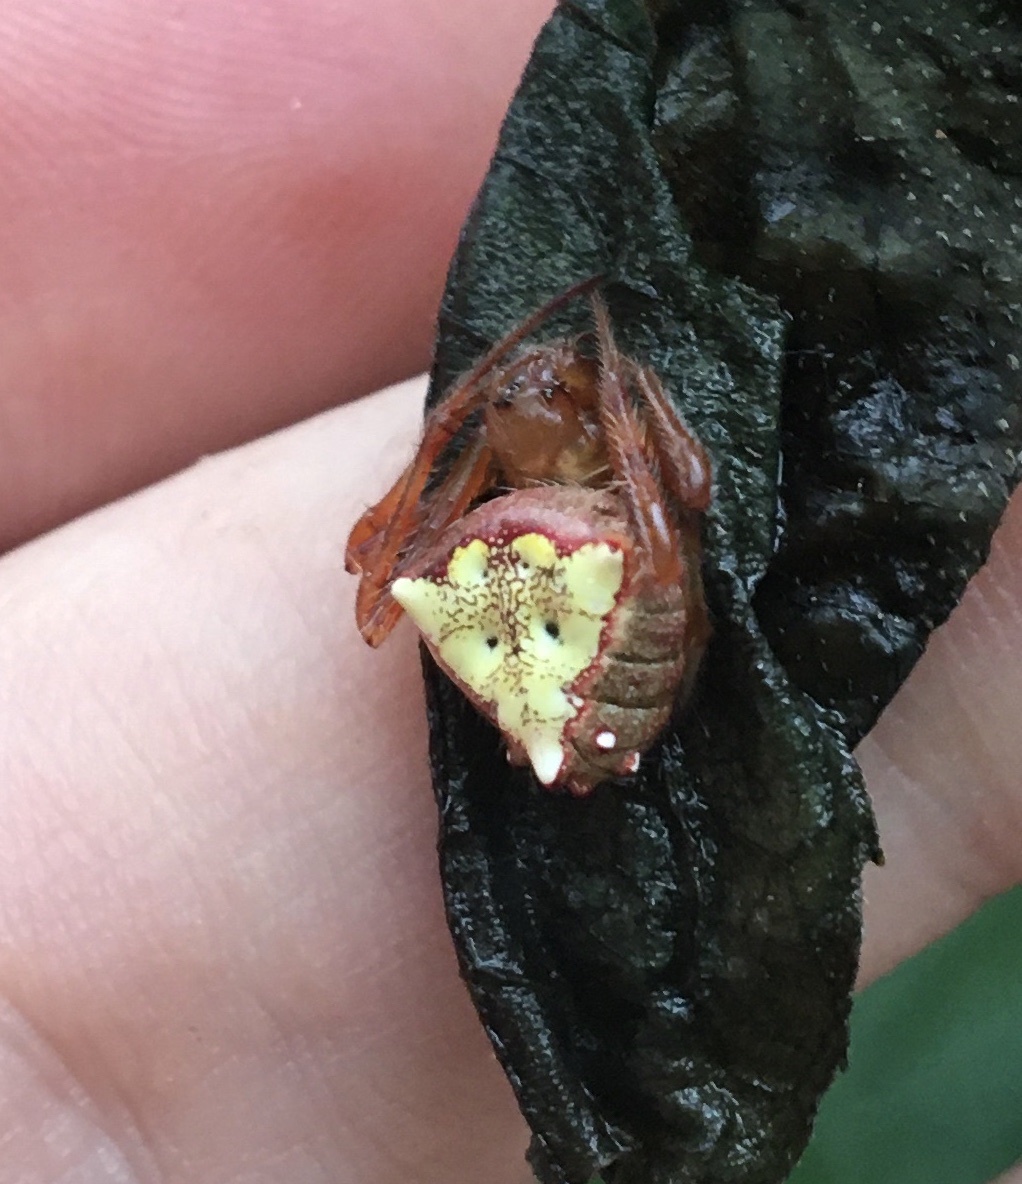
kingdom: Animalia
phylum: Arthropoda
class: Arachnida
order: Araneae
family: Araneidae
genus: Verrucosa
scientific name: Verrucosa arenata
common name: Orb weavers
